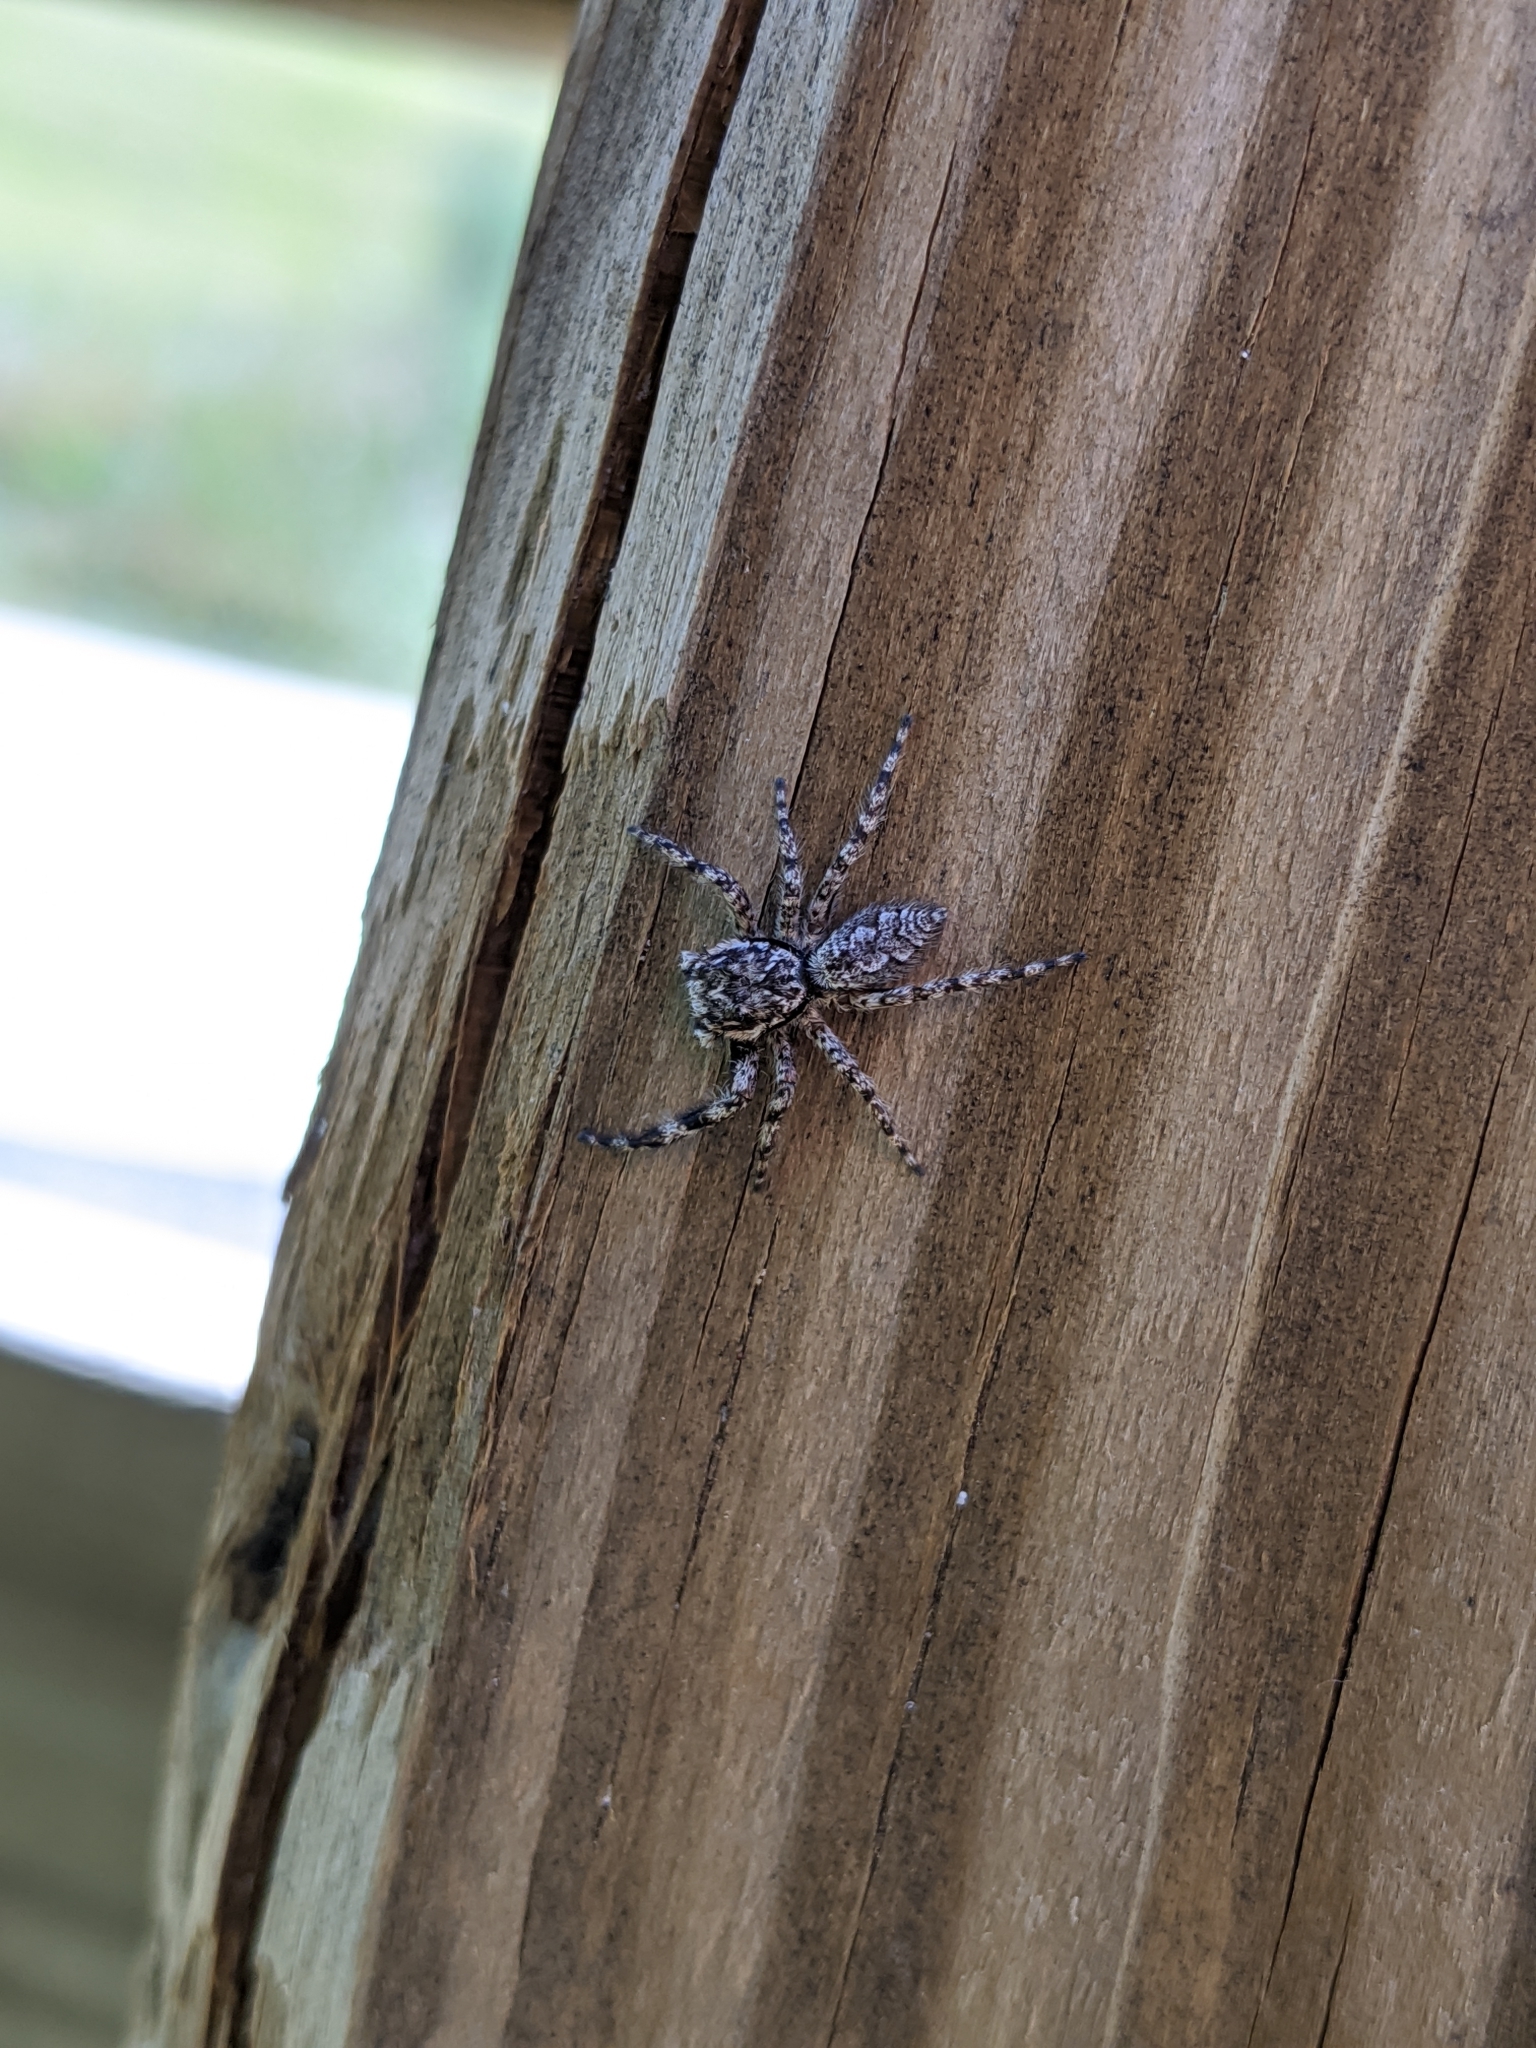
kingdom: Animalia
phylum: Arthropoda
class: Arachnida
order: Araneae
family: Salticidae
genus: Platycryptus
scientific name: Platycryptus undatus
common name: Tan jumping spider
